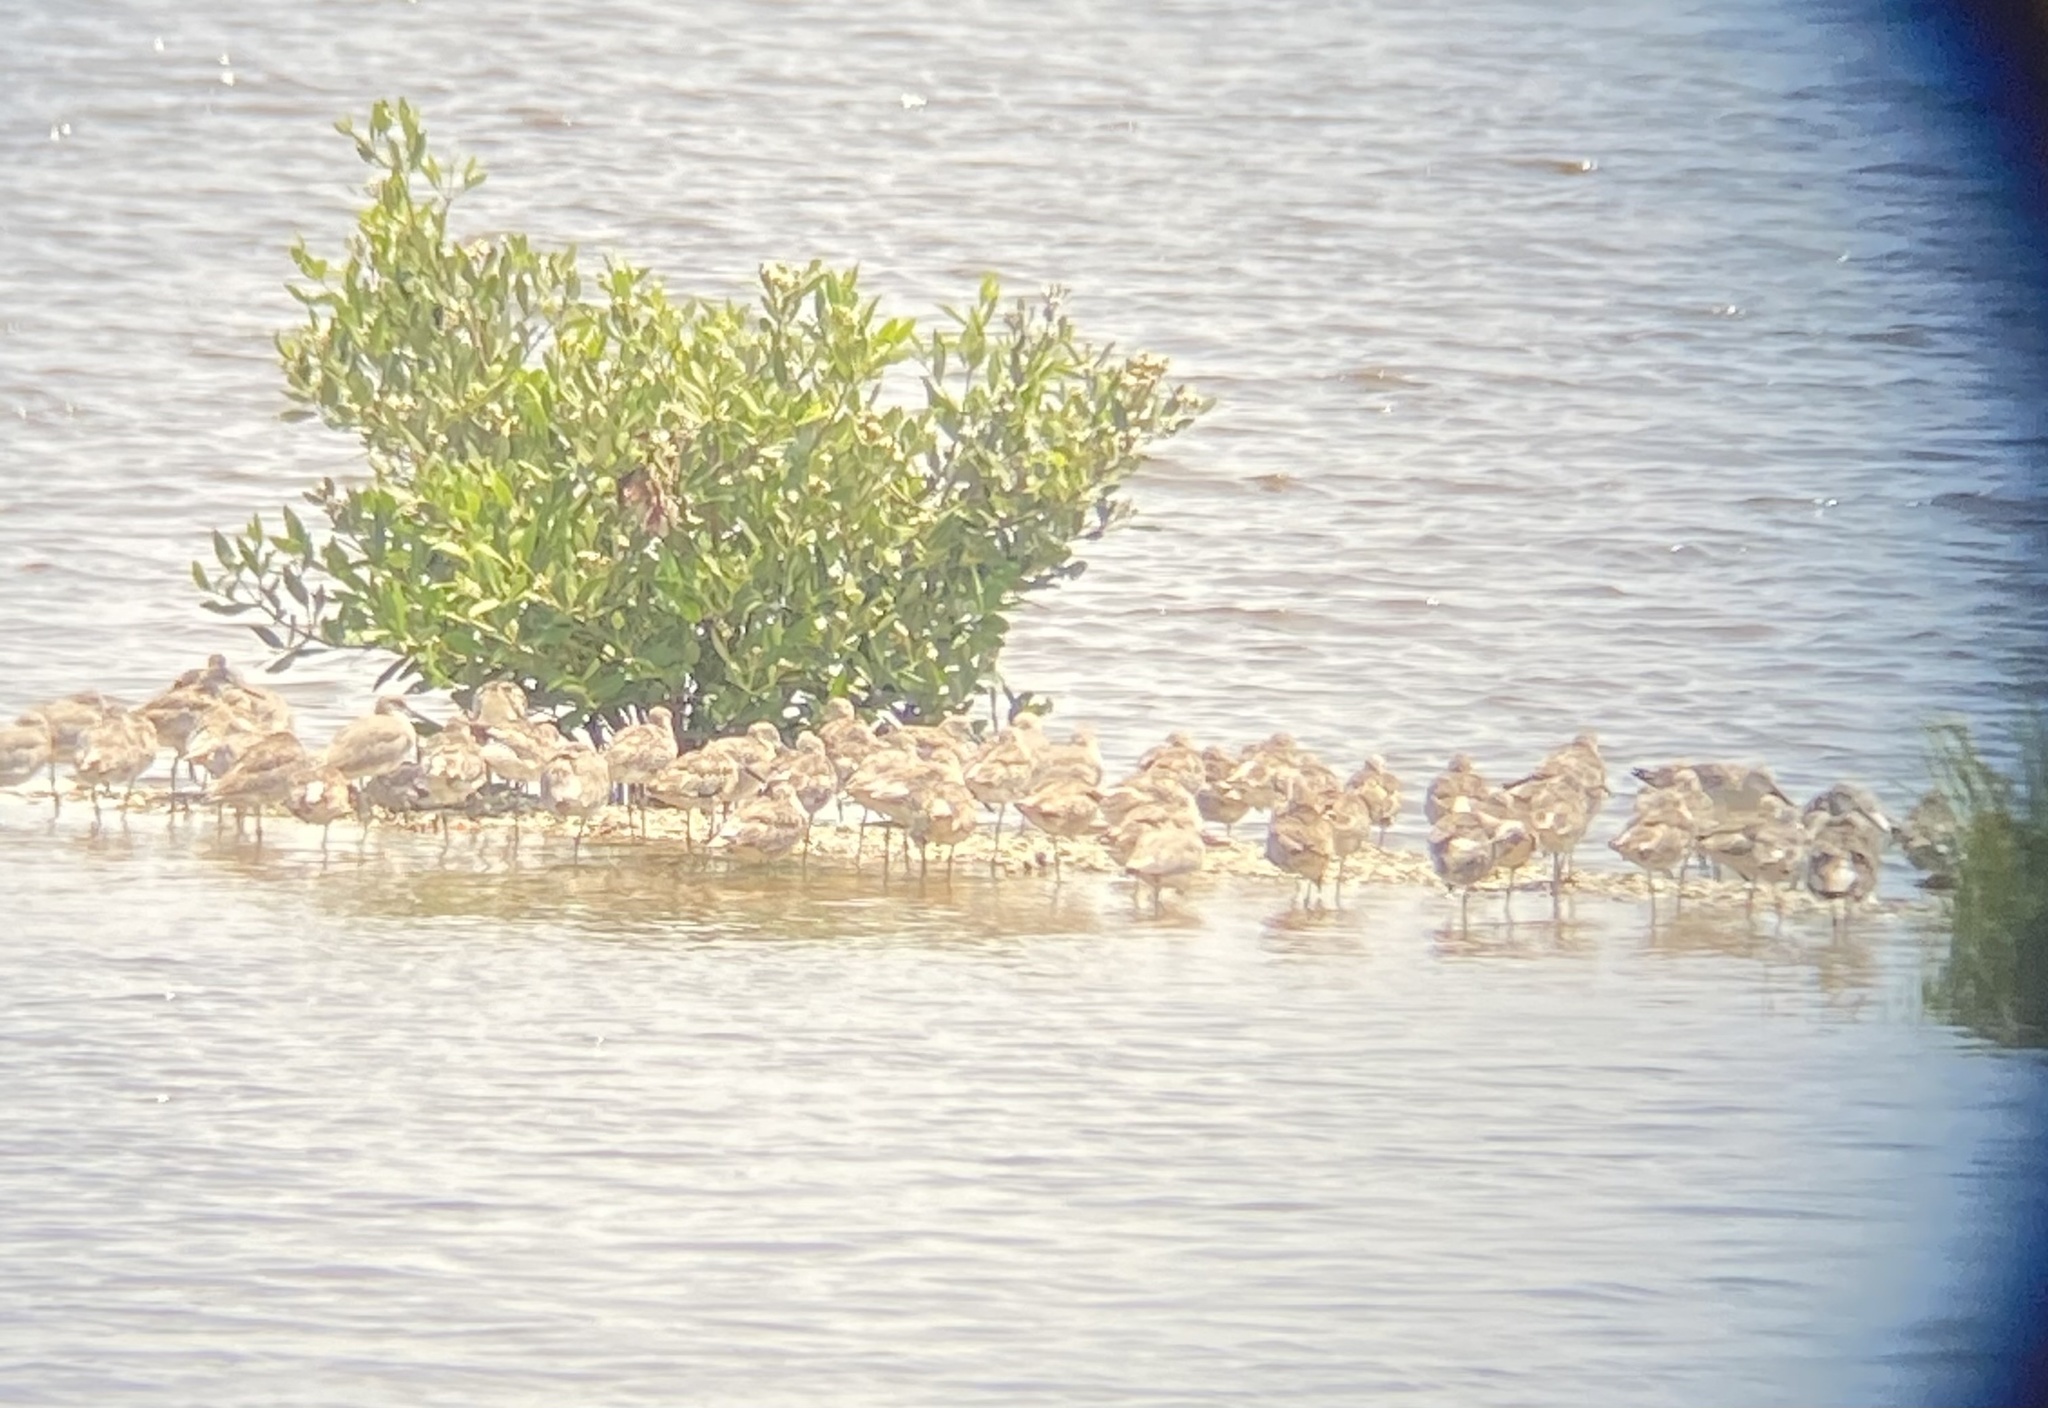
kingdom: Animalia
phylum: Chordata
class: Aves
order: Charadriiformes
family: Scolopacidae
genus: Tringa
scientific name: Tringa semipalmata
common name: Willet
